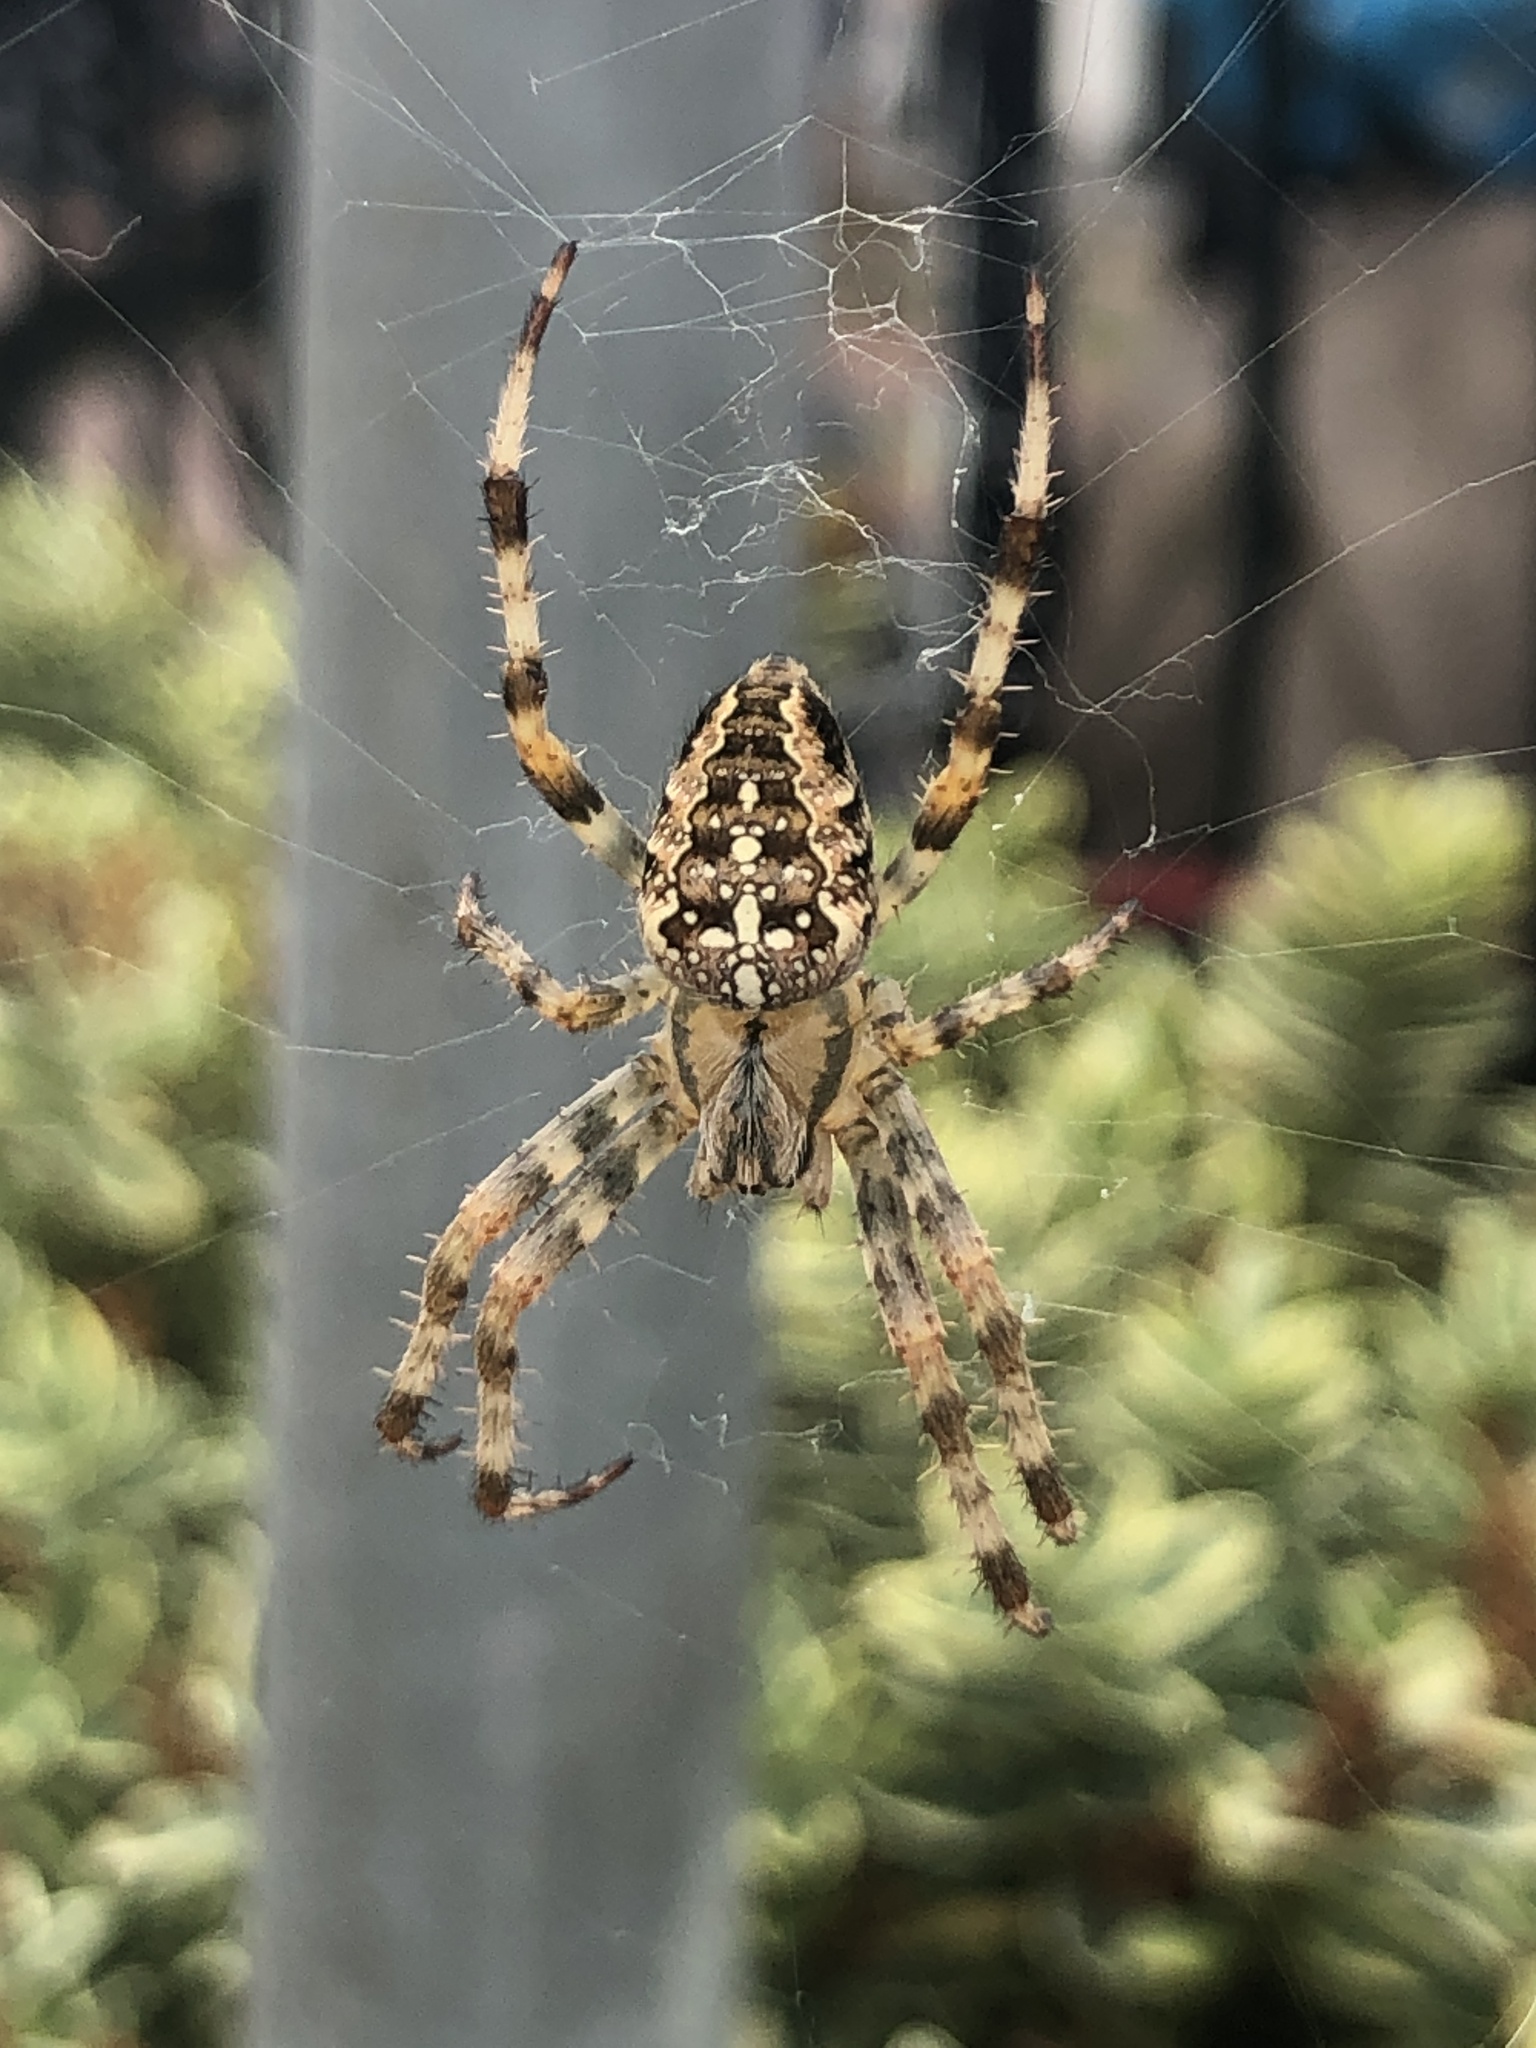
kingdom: Animalia
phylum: Arthropoda
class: Arachnida
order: Araneae
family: Araneidae
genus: Araneus
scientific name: Araneus diadematus
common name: Cross orbweaver
